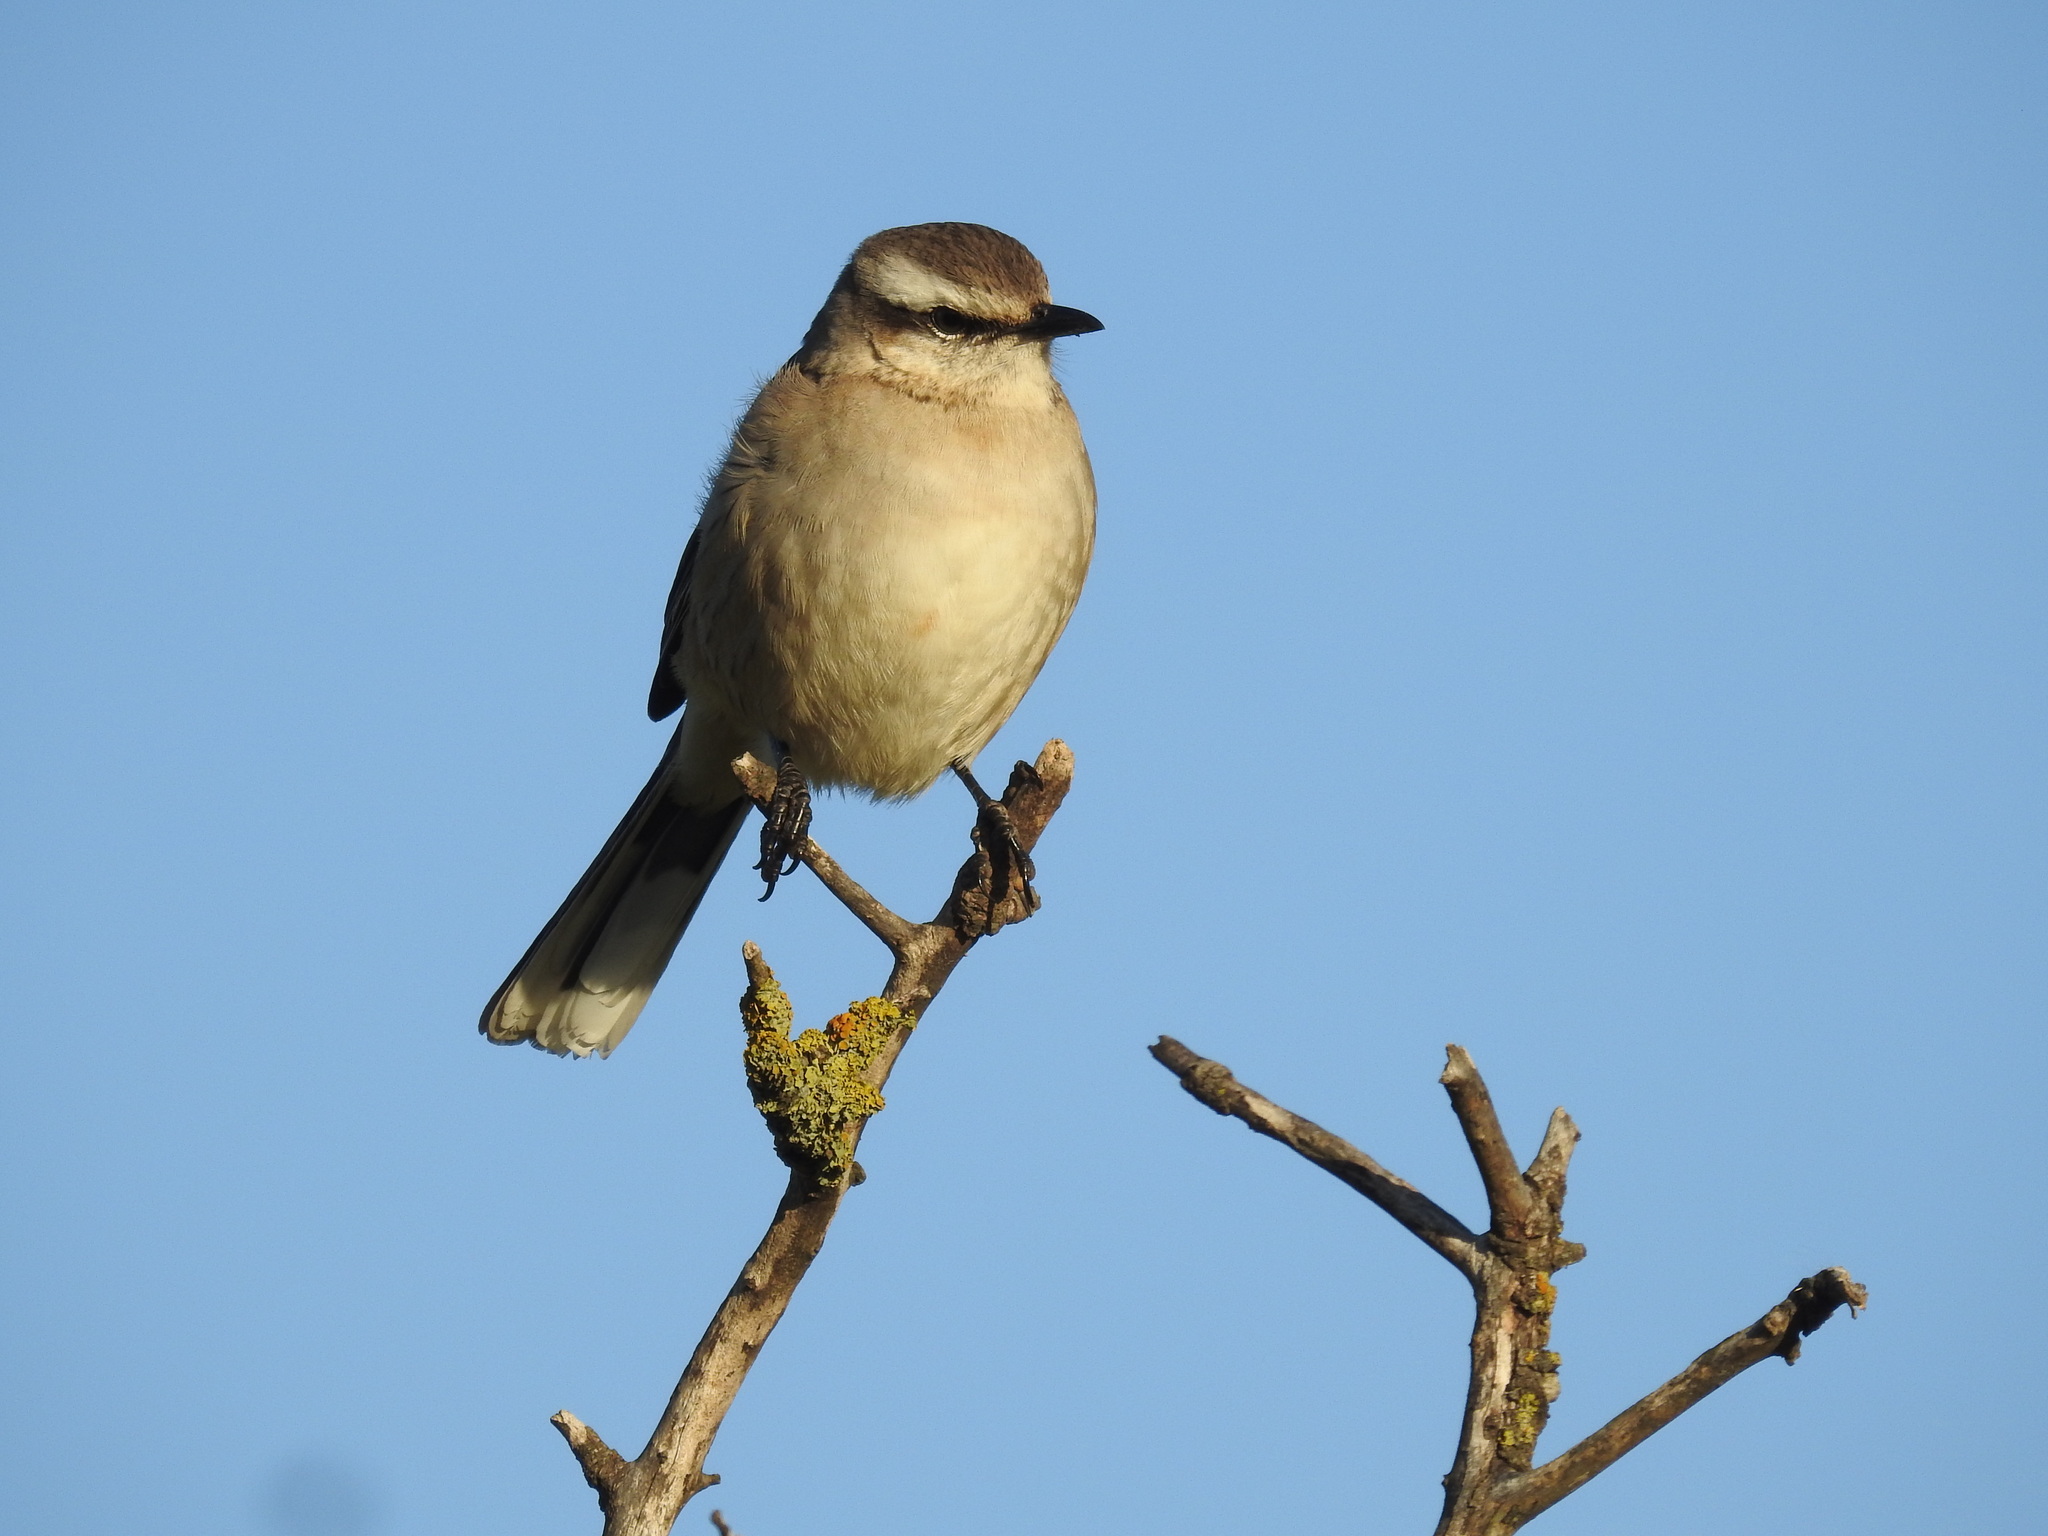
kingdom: Animalia
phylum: Chordata
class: Aves
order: Passeriformes
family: Mimidae
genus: Mimus
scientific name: Mimus saturninus
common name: Chalk-browed mockingbird
